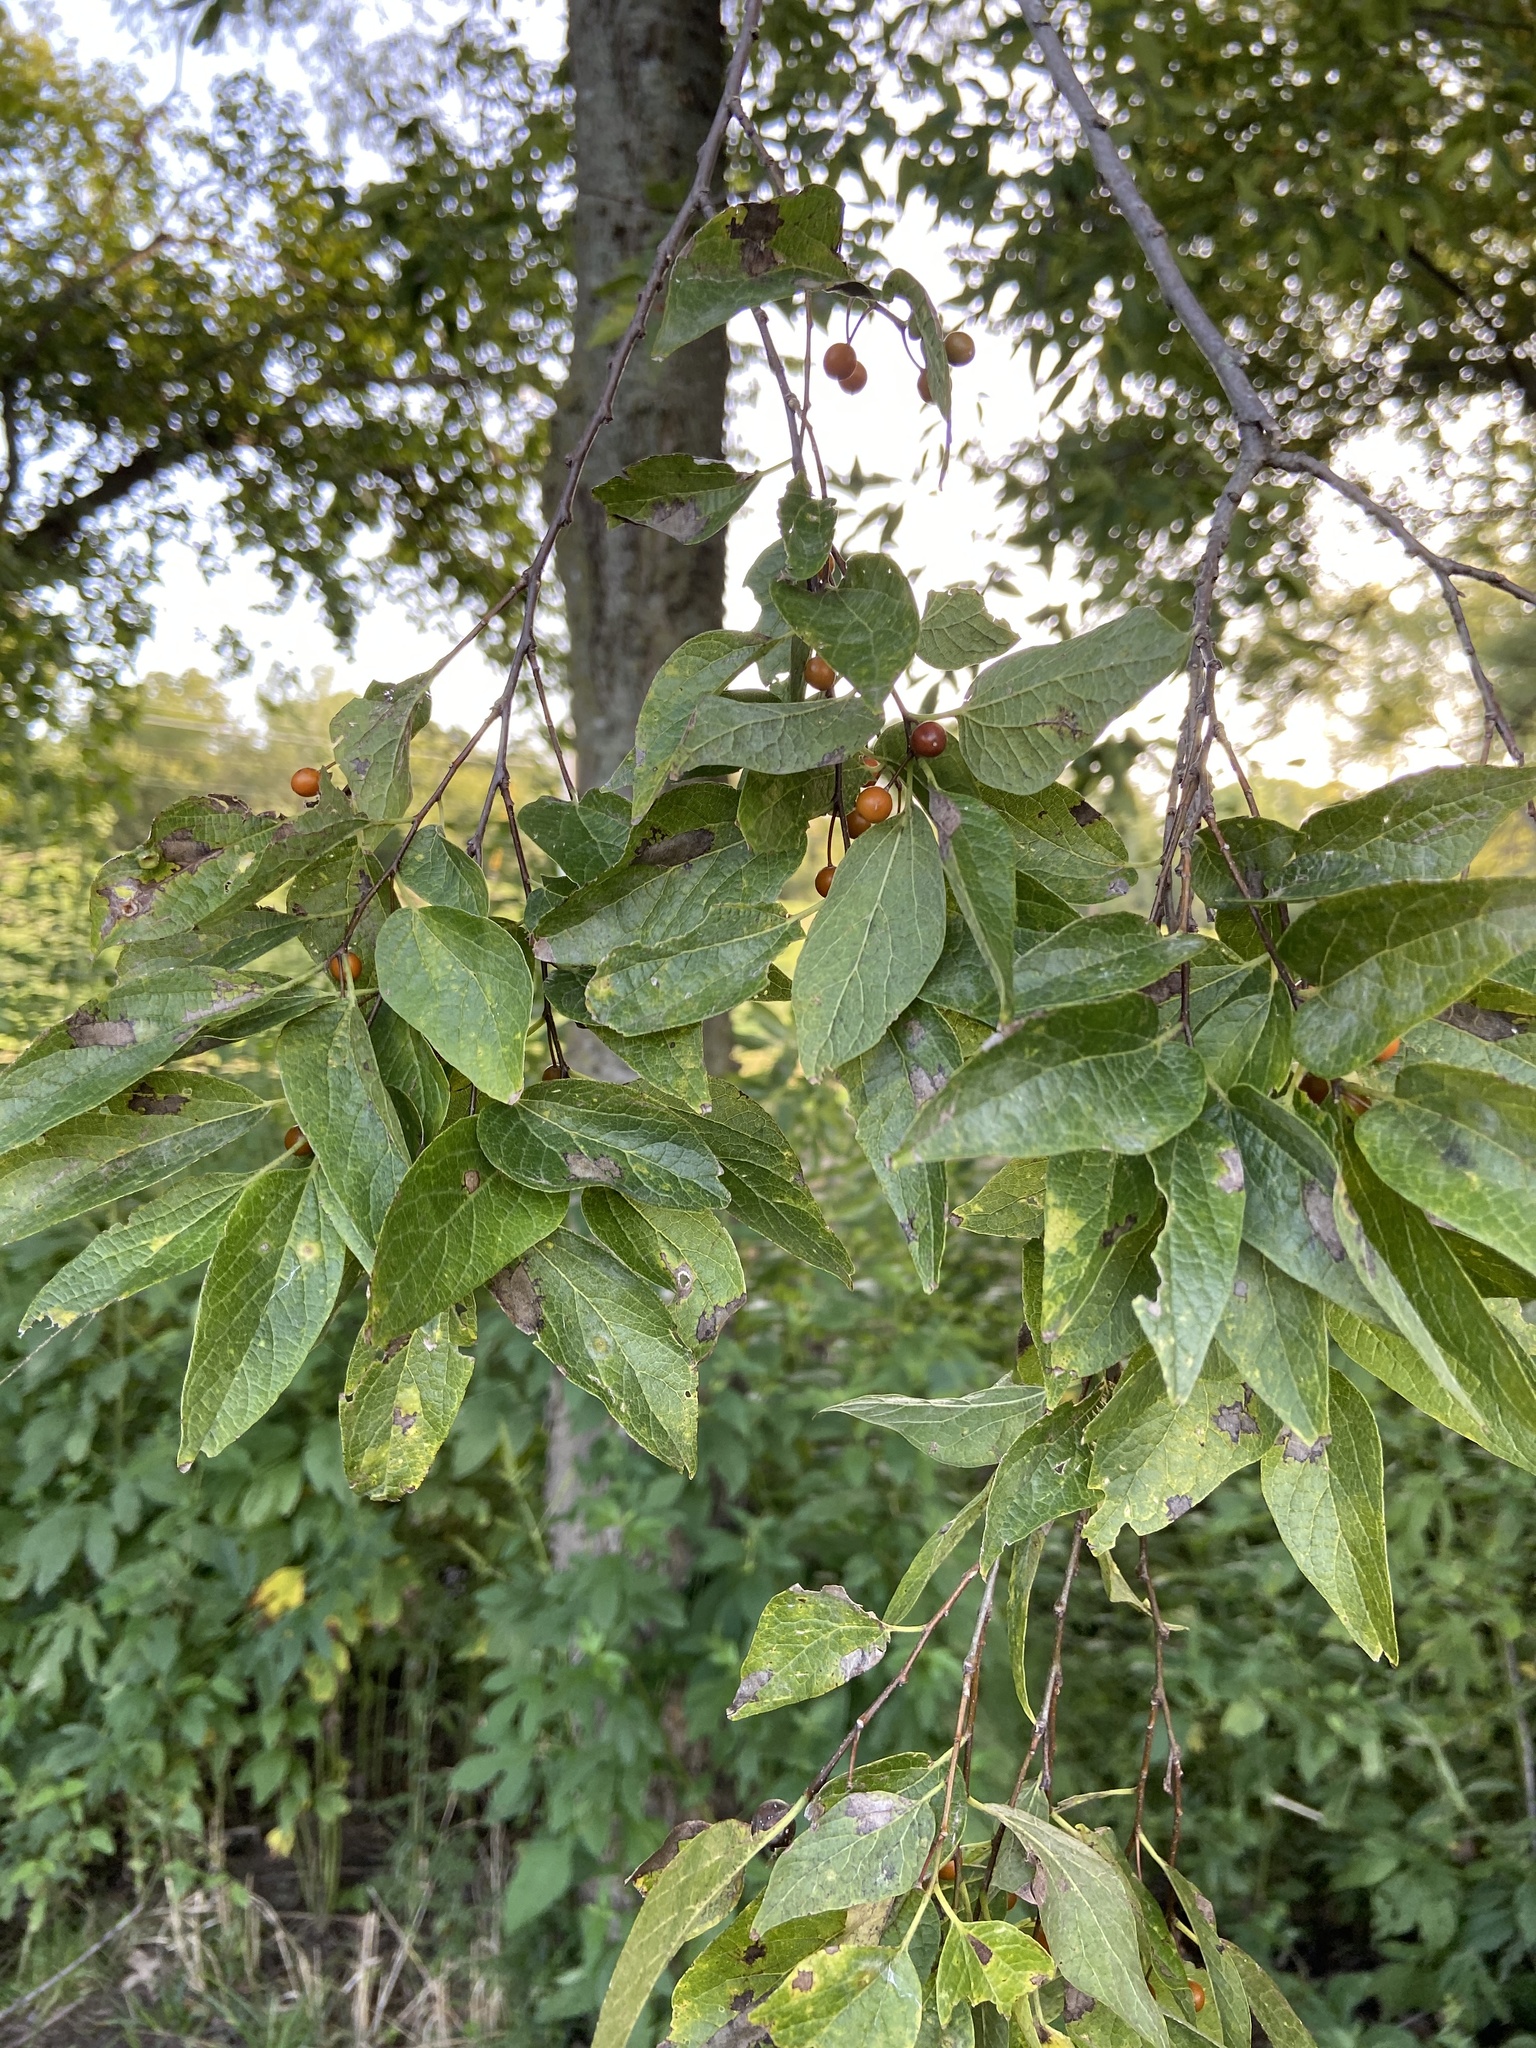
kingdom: Plantae
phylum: Tracheophyta
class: Magnoliopsida
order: Rosales
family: Cannabaceae
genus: Celtis
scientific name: Celtis laevigata
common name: Sugarberry
